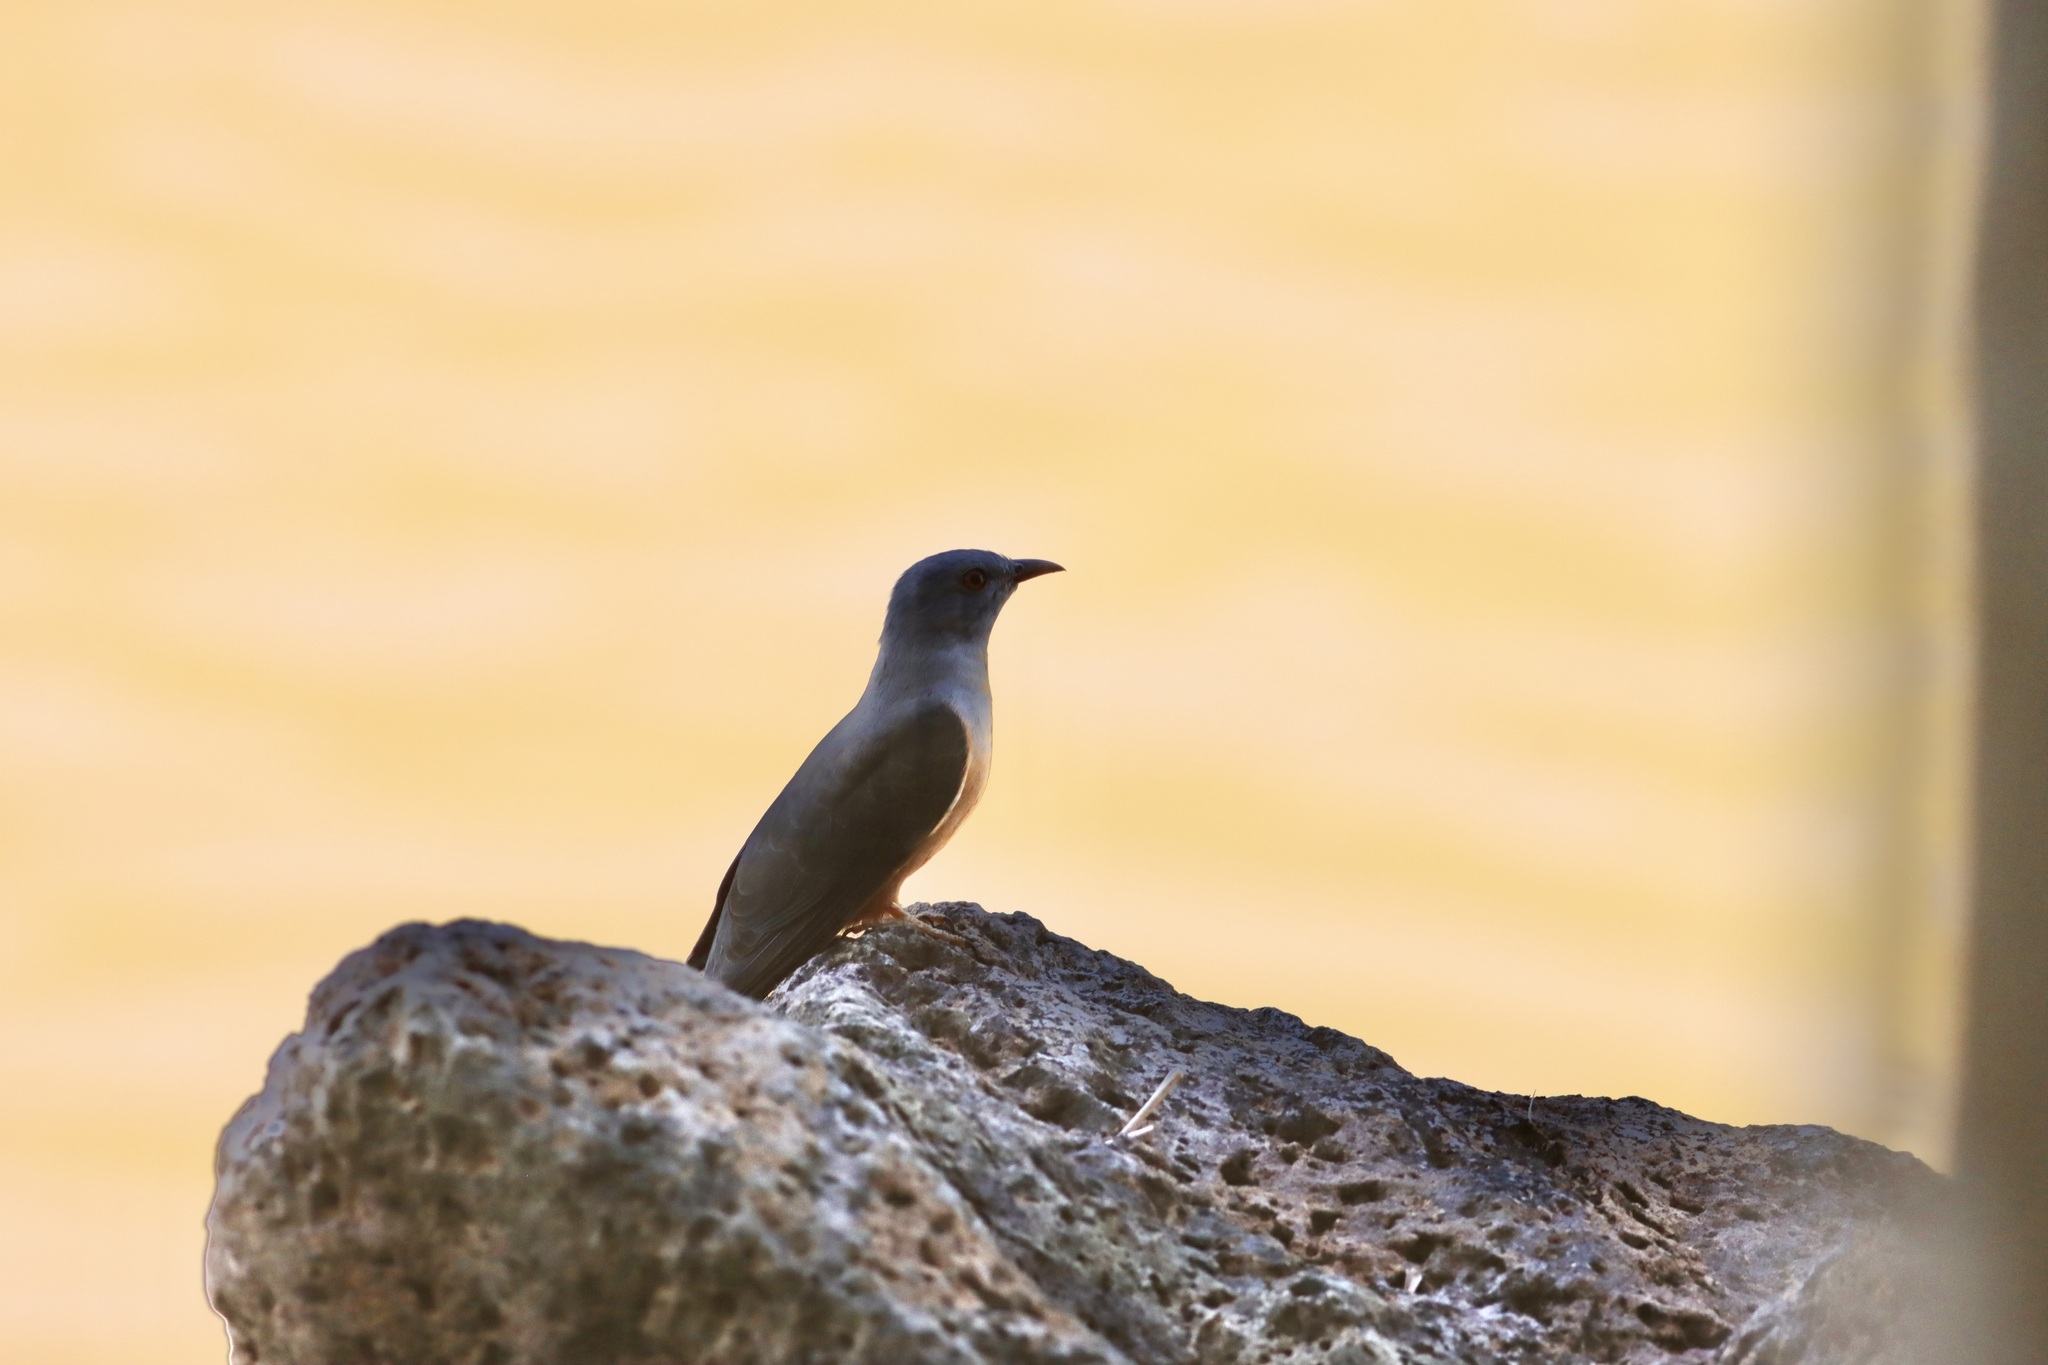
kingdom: Animalia
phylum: Chordata
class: Aves
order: Cuculiformes
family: Cuculidae
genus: Cacomantis
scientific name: Cacomantis merulinus
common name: Plaintive cuckoo
